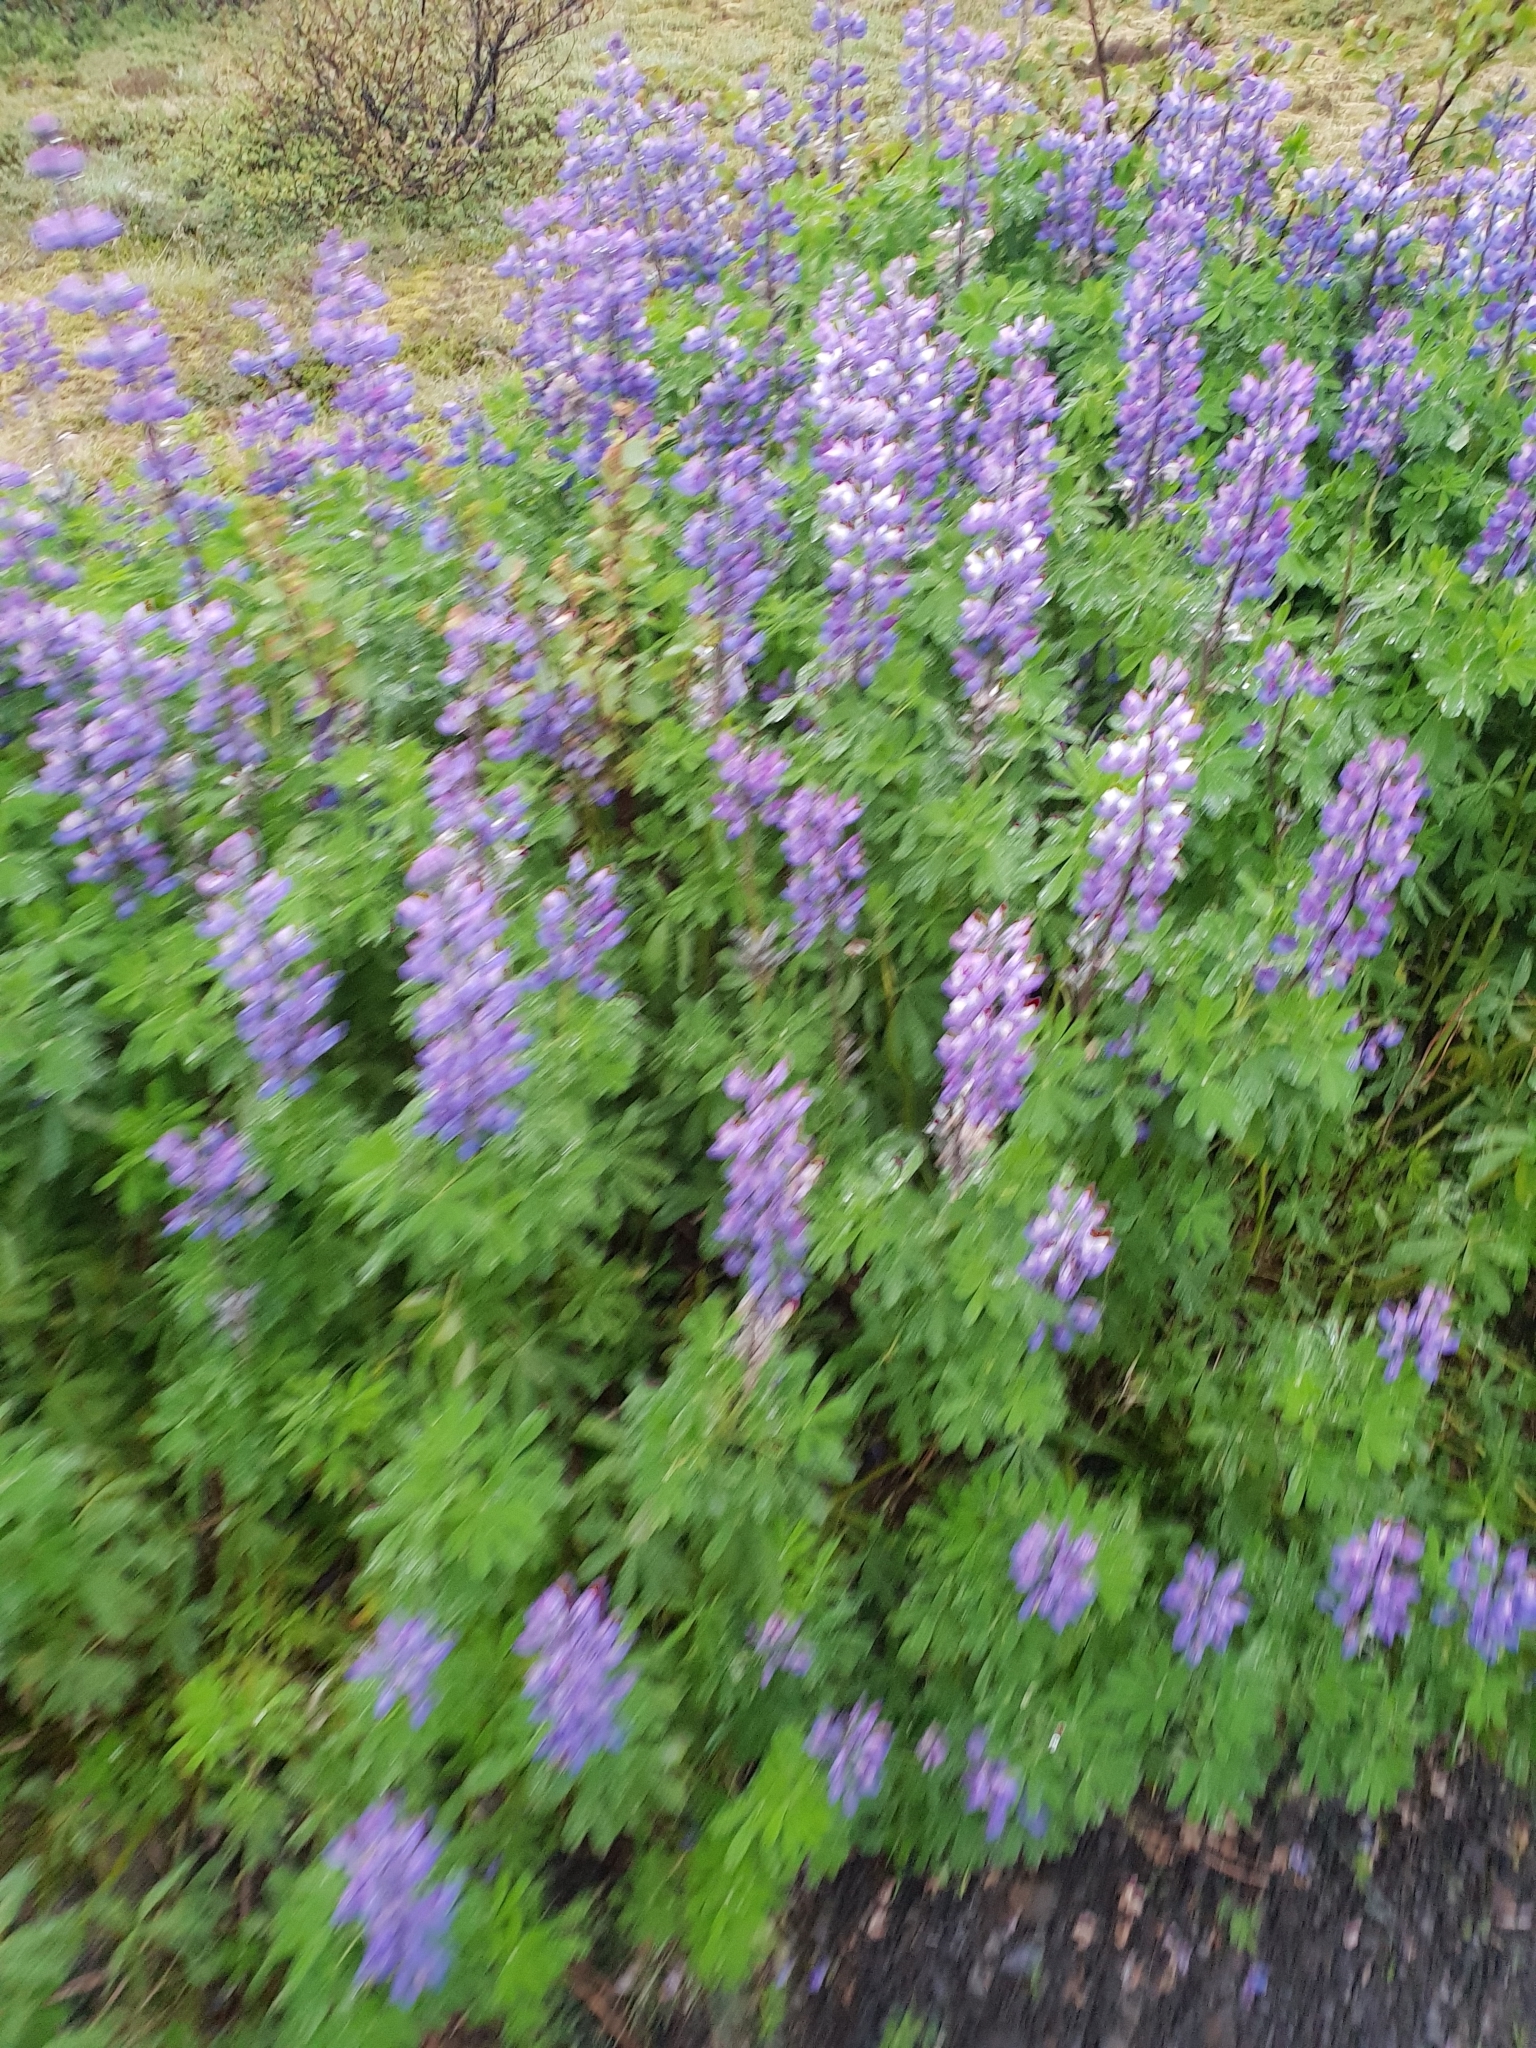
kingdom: Plantae
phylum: Tracheophyta
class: Magnoliopsida
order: Fabales
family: Fabaceae
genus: Lupinus
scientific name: Lupinus nootkatensis
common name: Nootka lupine
